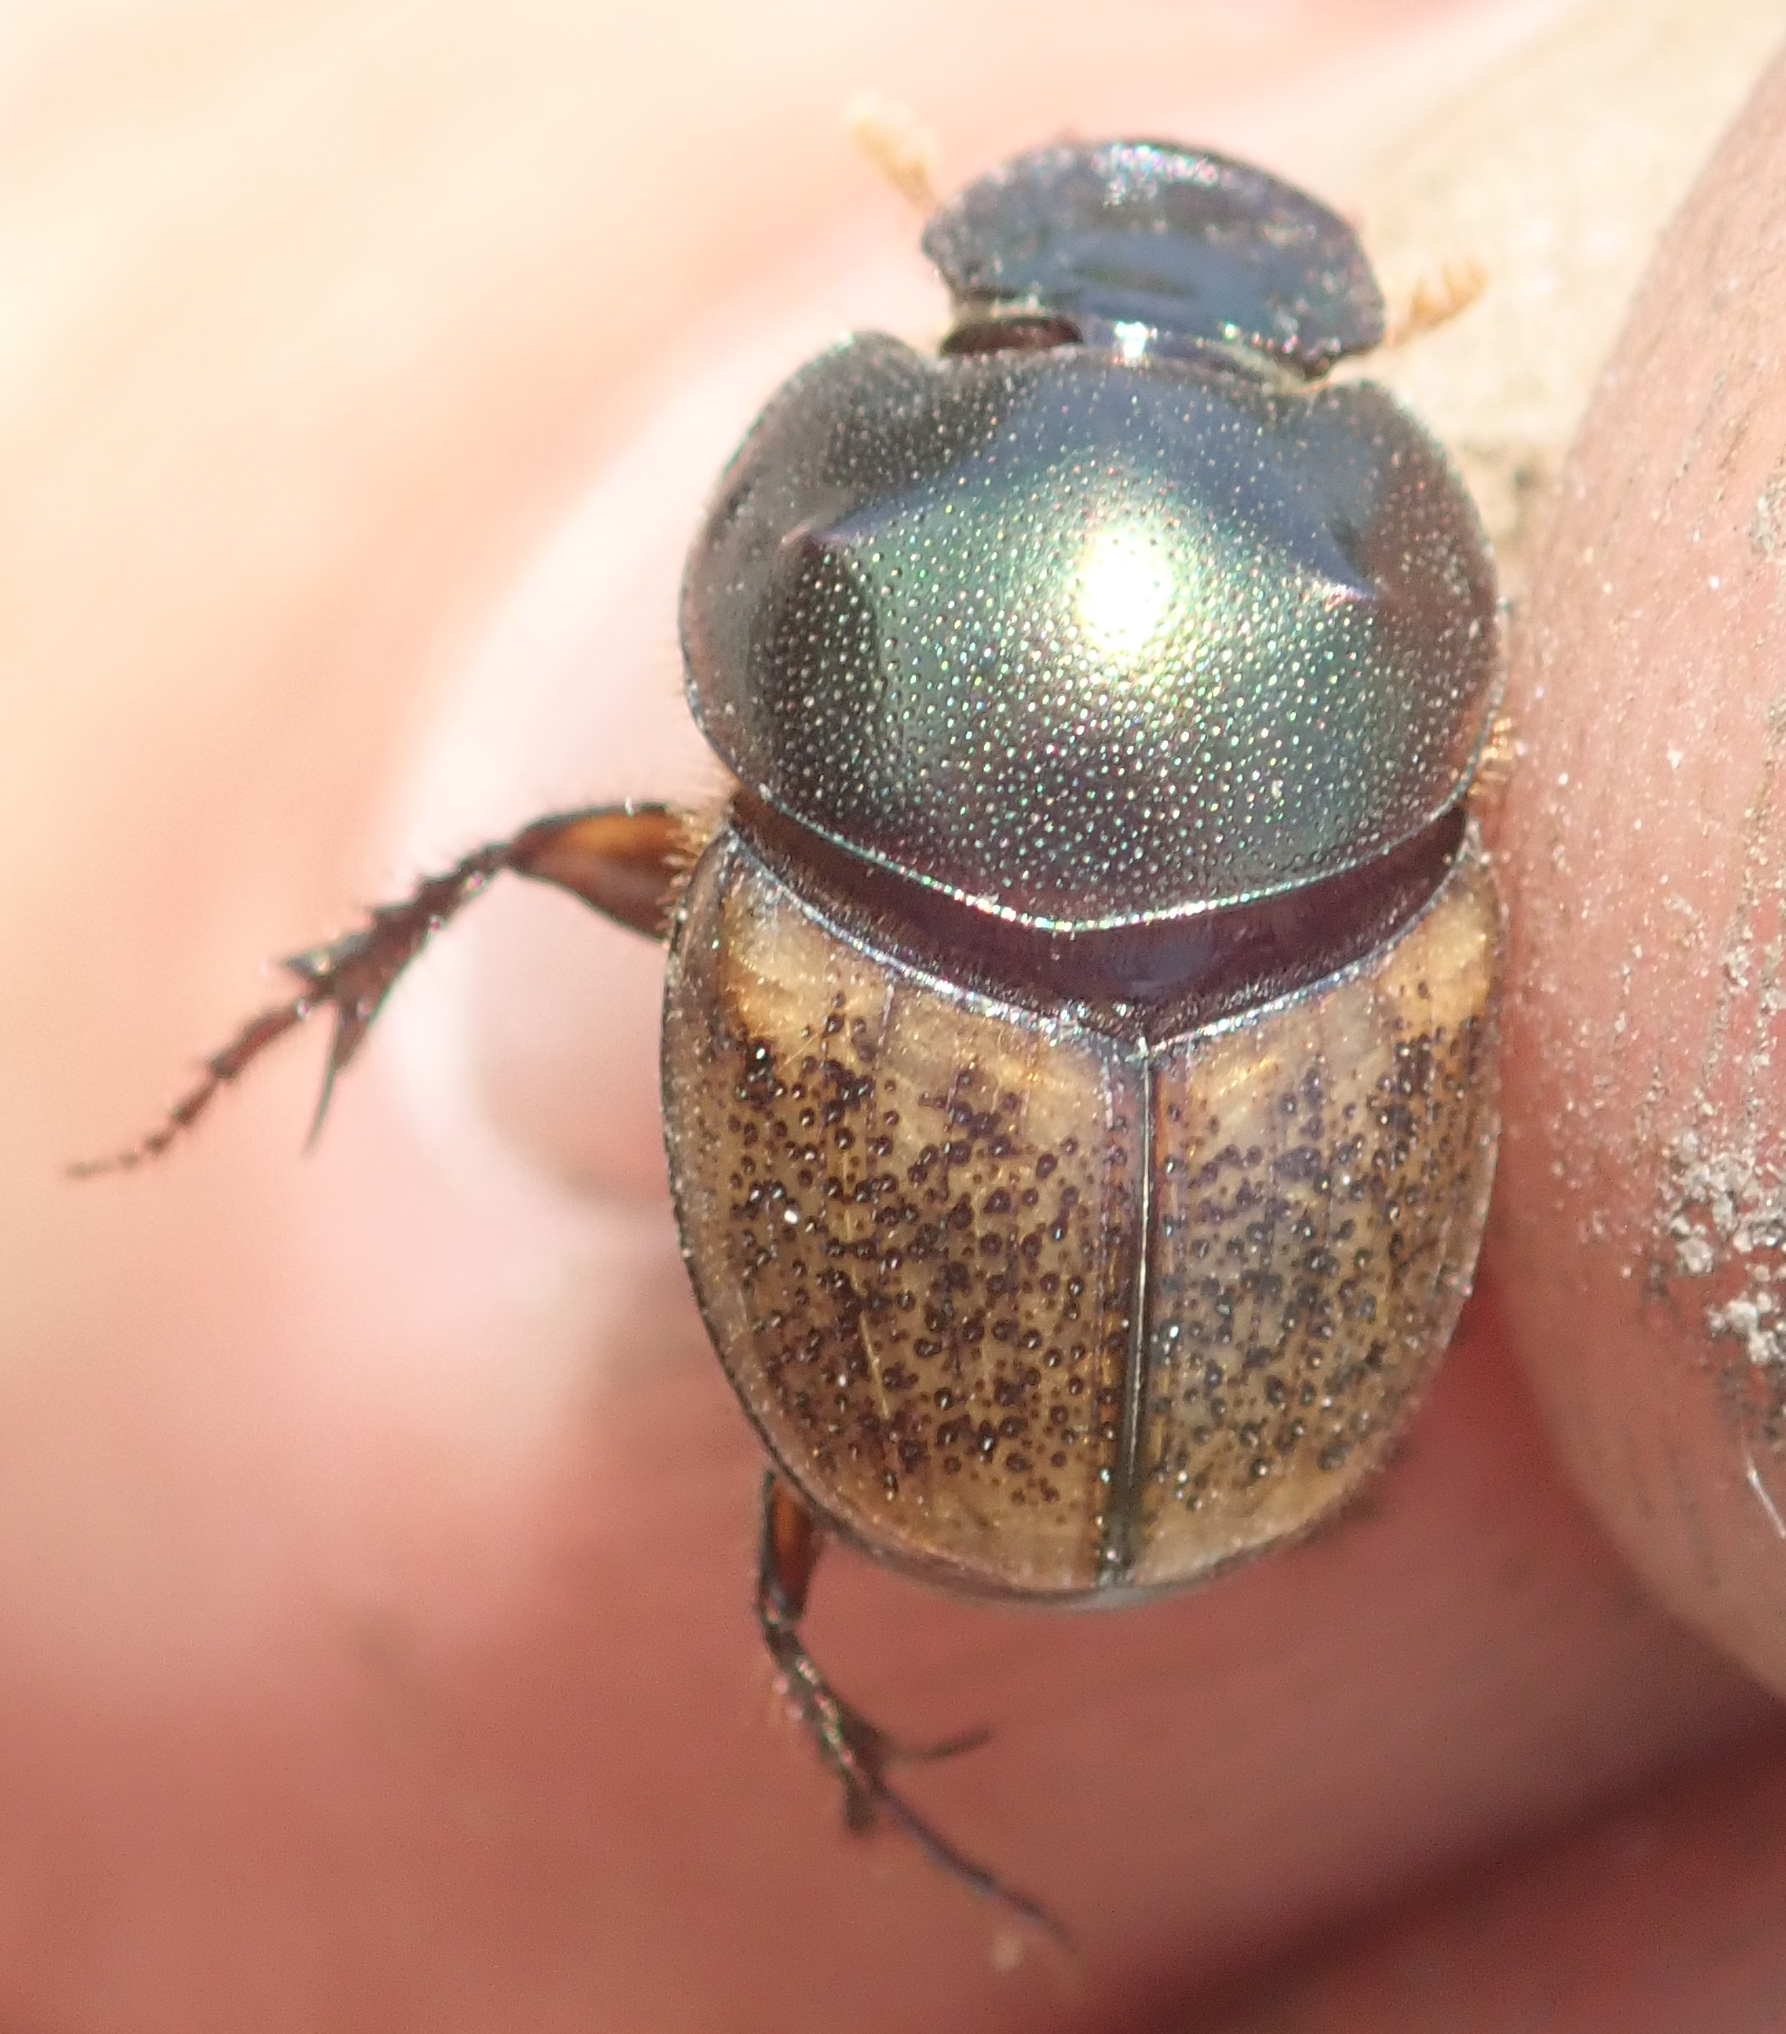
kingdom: Animalia
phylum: Arthropoda
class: Insecta
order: Coleoptera
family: Scarabaeidae
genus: Onthophagus
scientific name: Onthophagus plebejus
